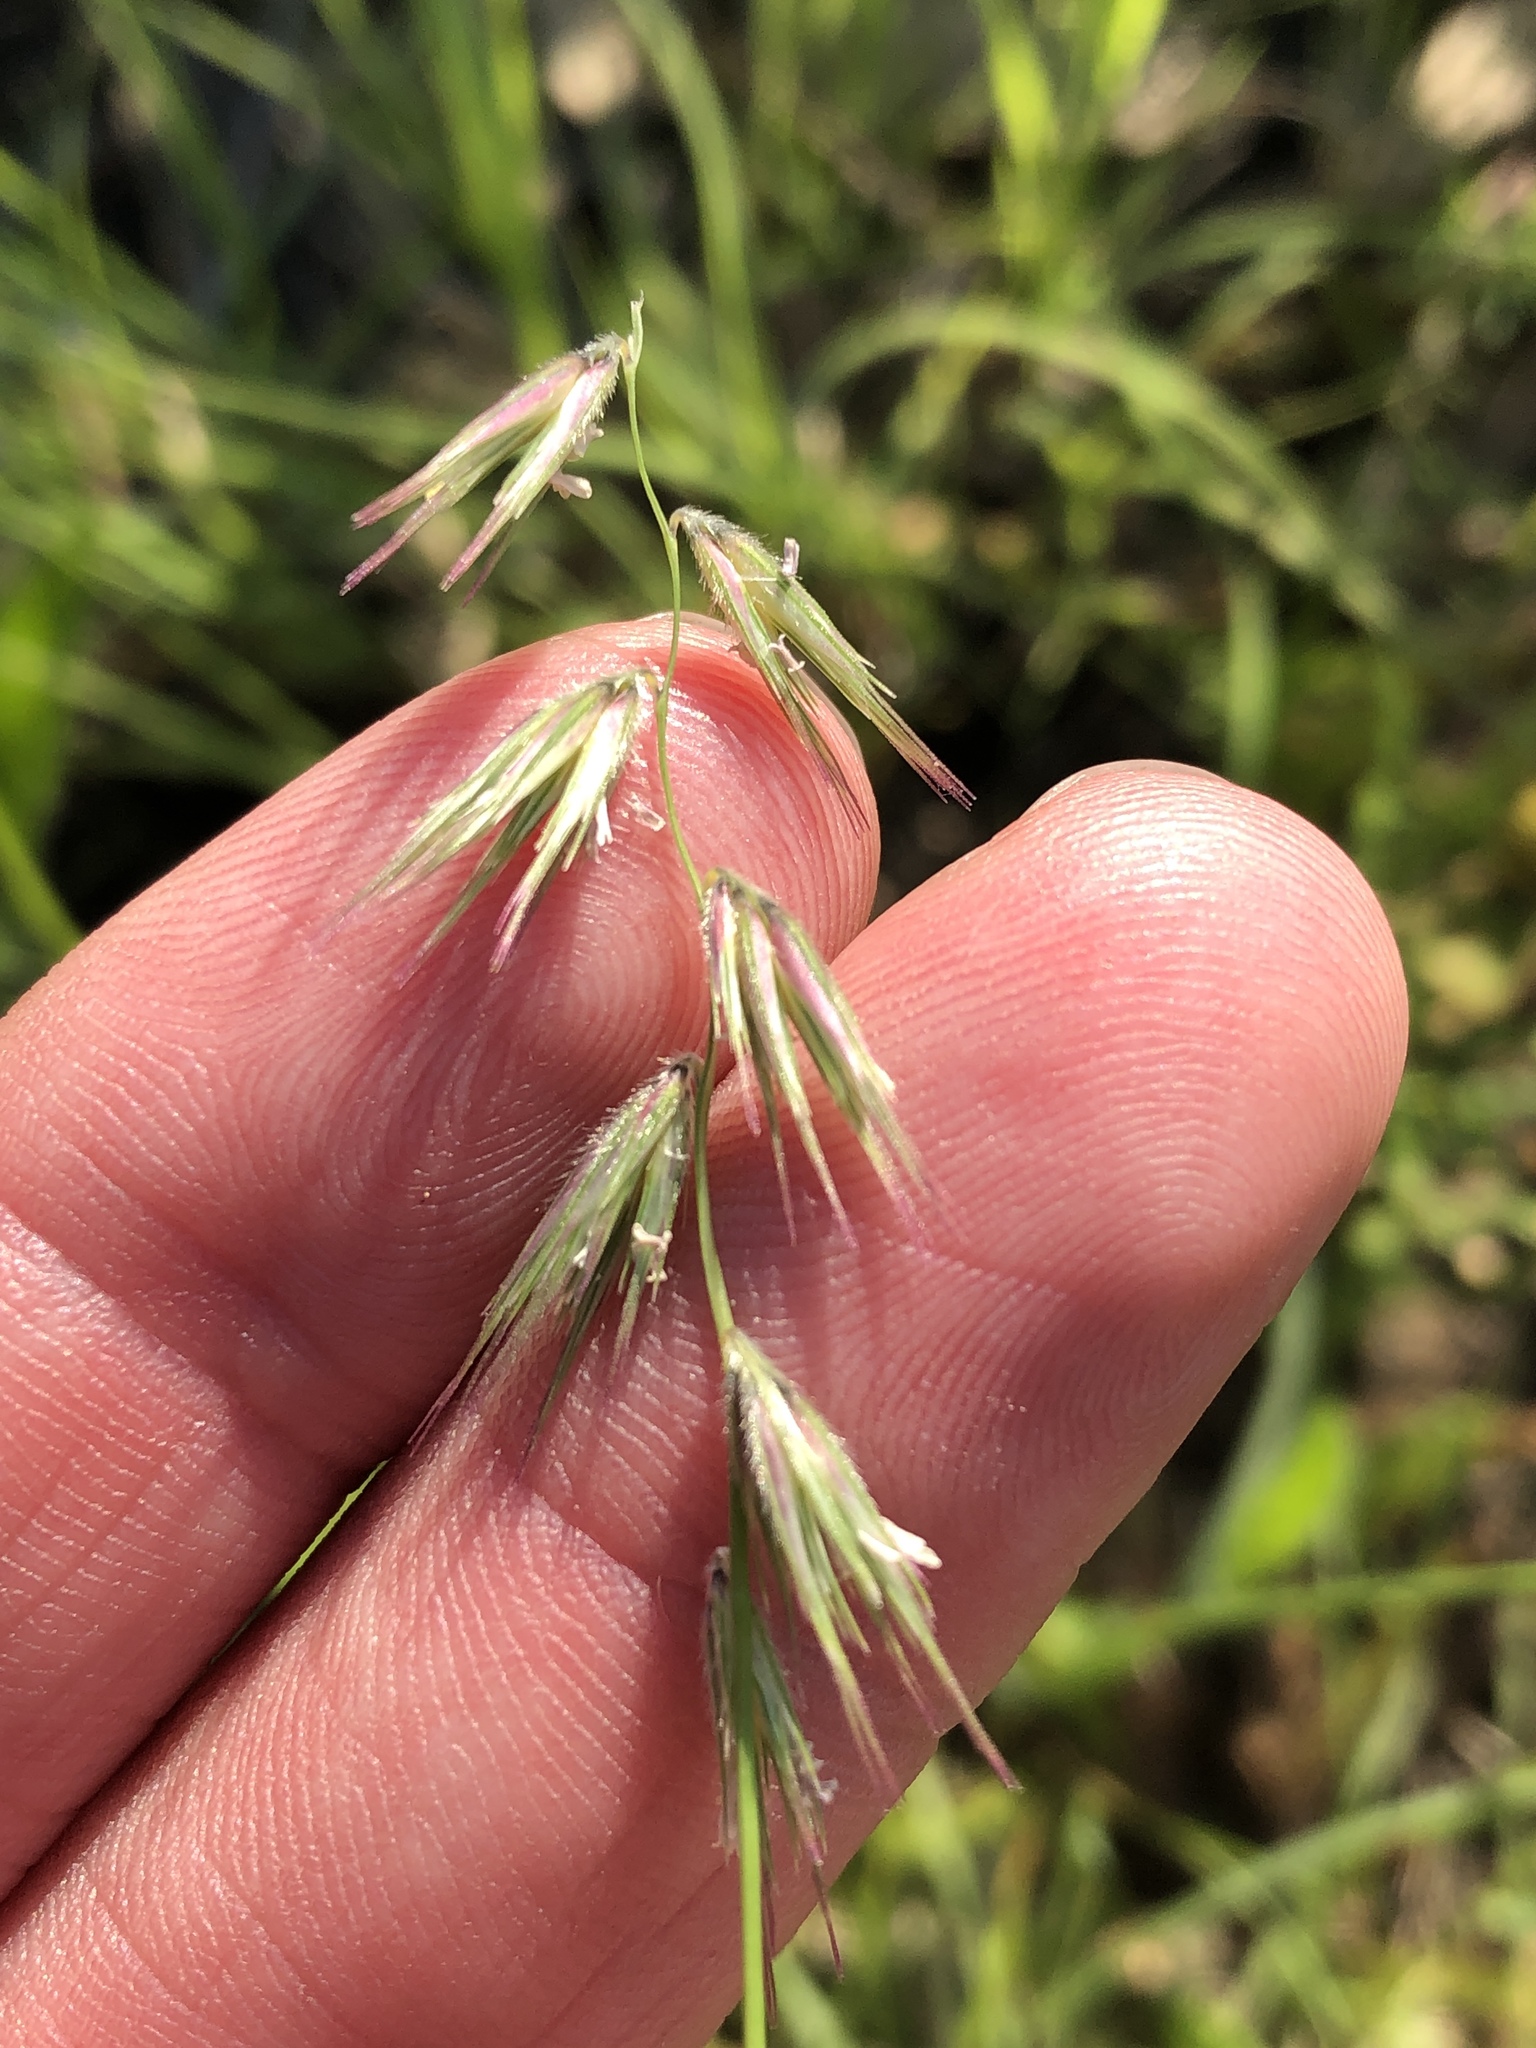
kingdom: Plantae
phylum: Tracheophyta
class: Liliopsida
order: Poales
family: Poaceae
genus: Bouteloua
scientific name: Bouteloua rigidiseta
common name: Texas grama
